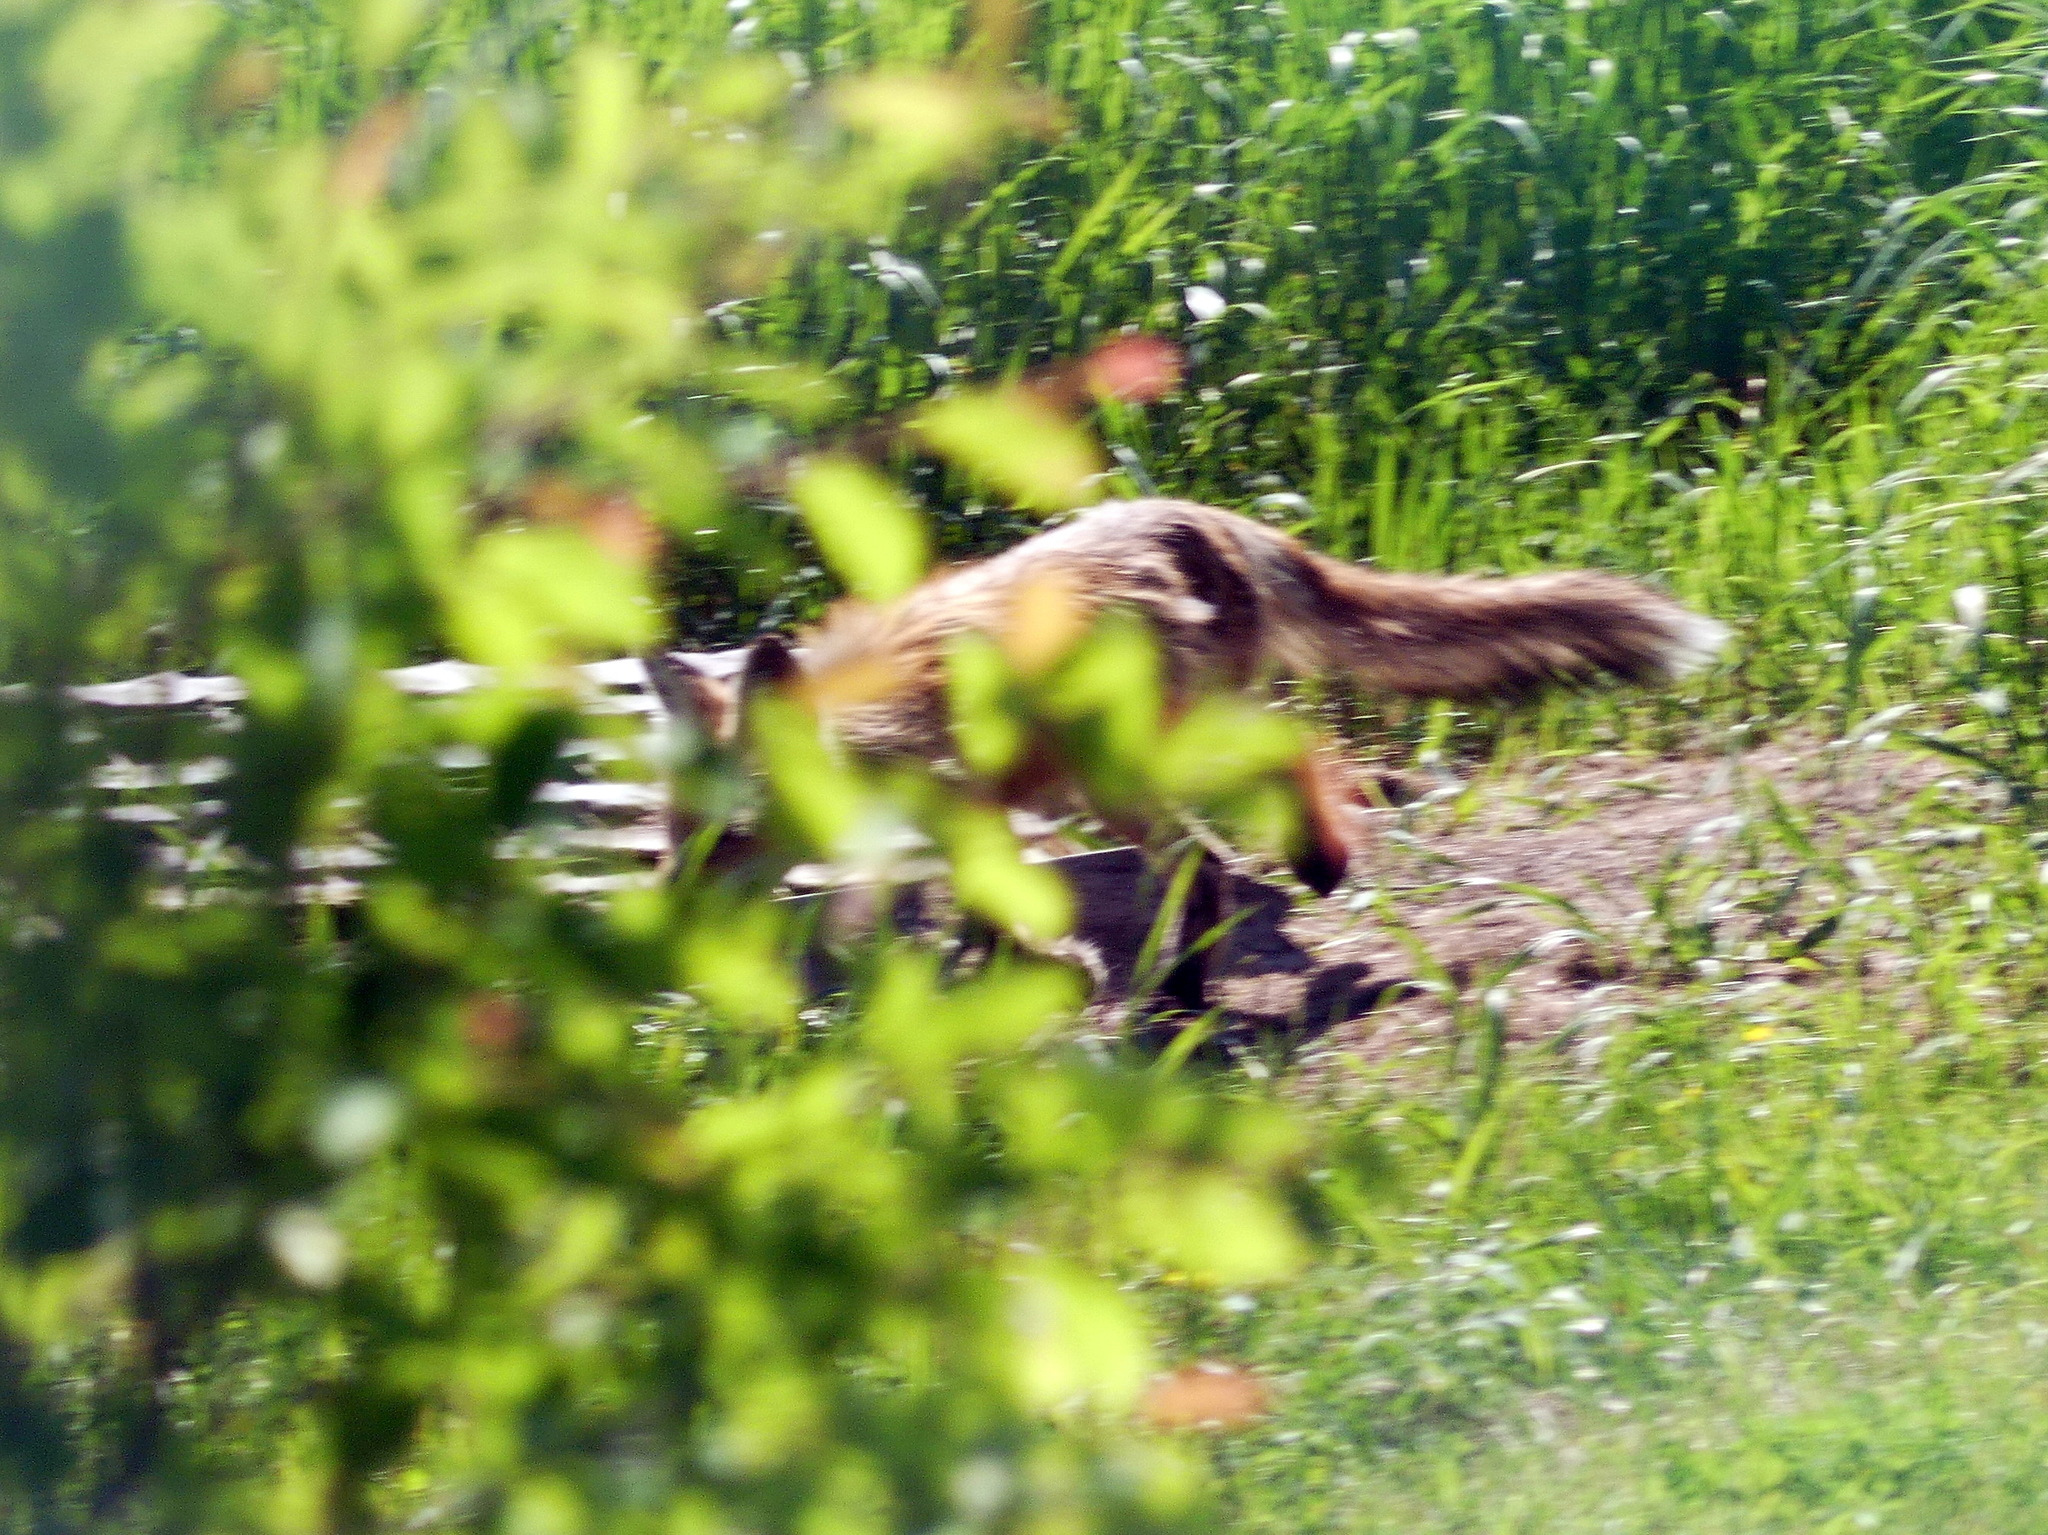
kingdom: Animalia
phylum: Chordata
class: Mammalia
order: Carnivora
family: Canidae
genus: Vulpes
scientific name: Vulpes vulpes
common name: Red fox
